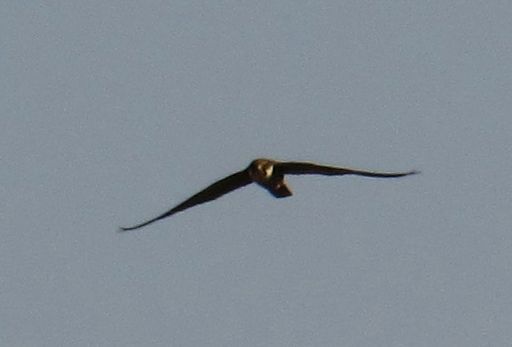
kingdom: Animalia
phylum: Chordata
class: Aves
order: Falconiformes
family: Falconidae
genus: Falco
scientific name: Falco subbuteo
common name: Eurasian hobby
